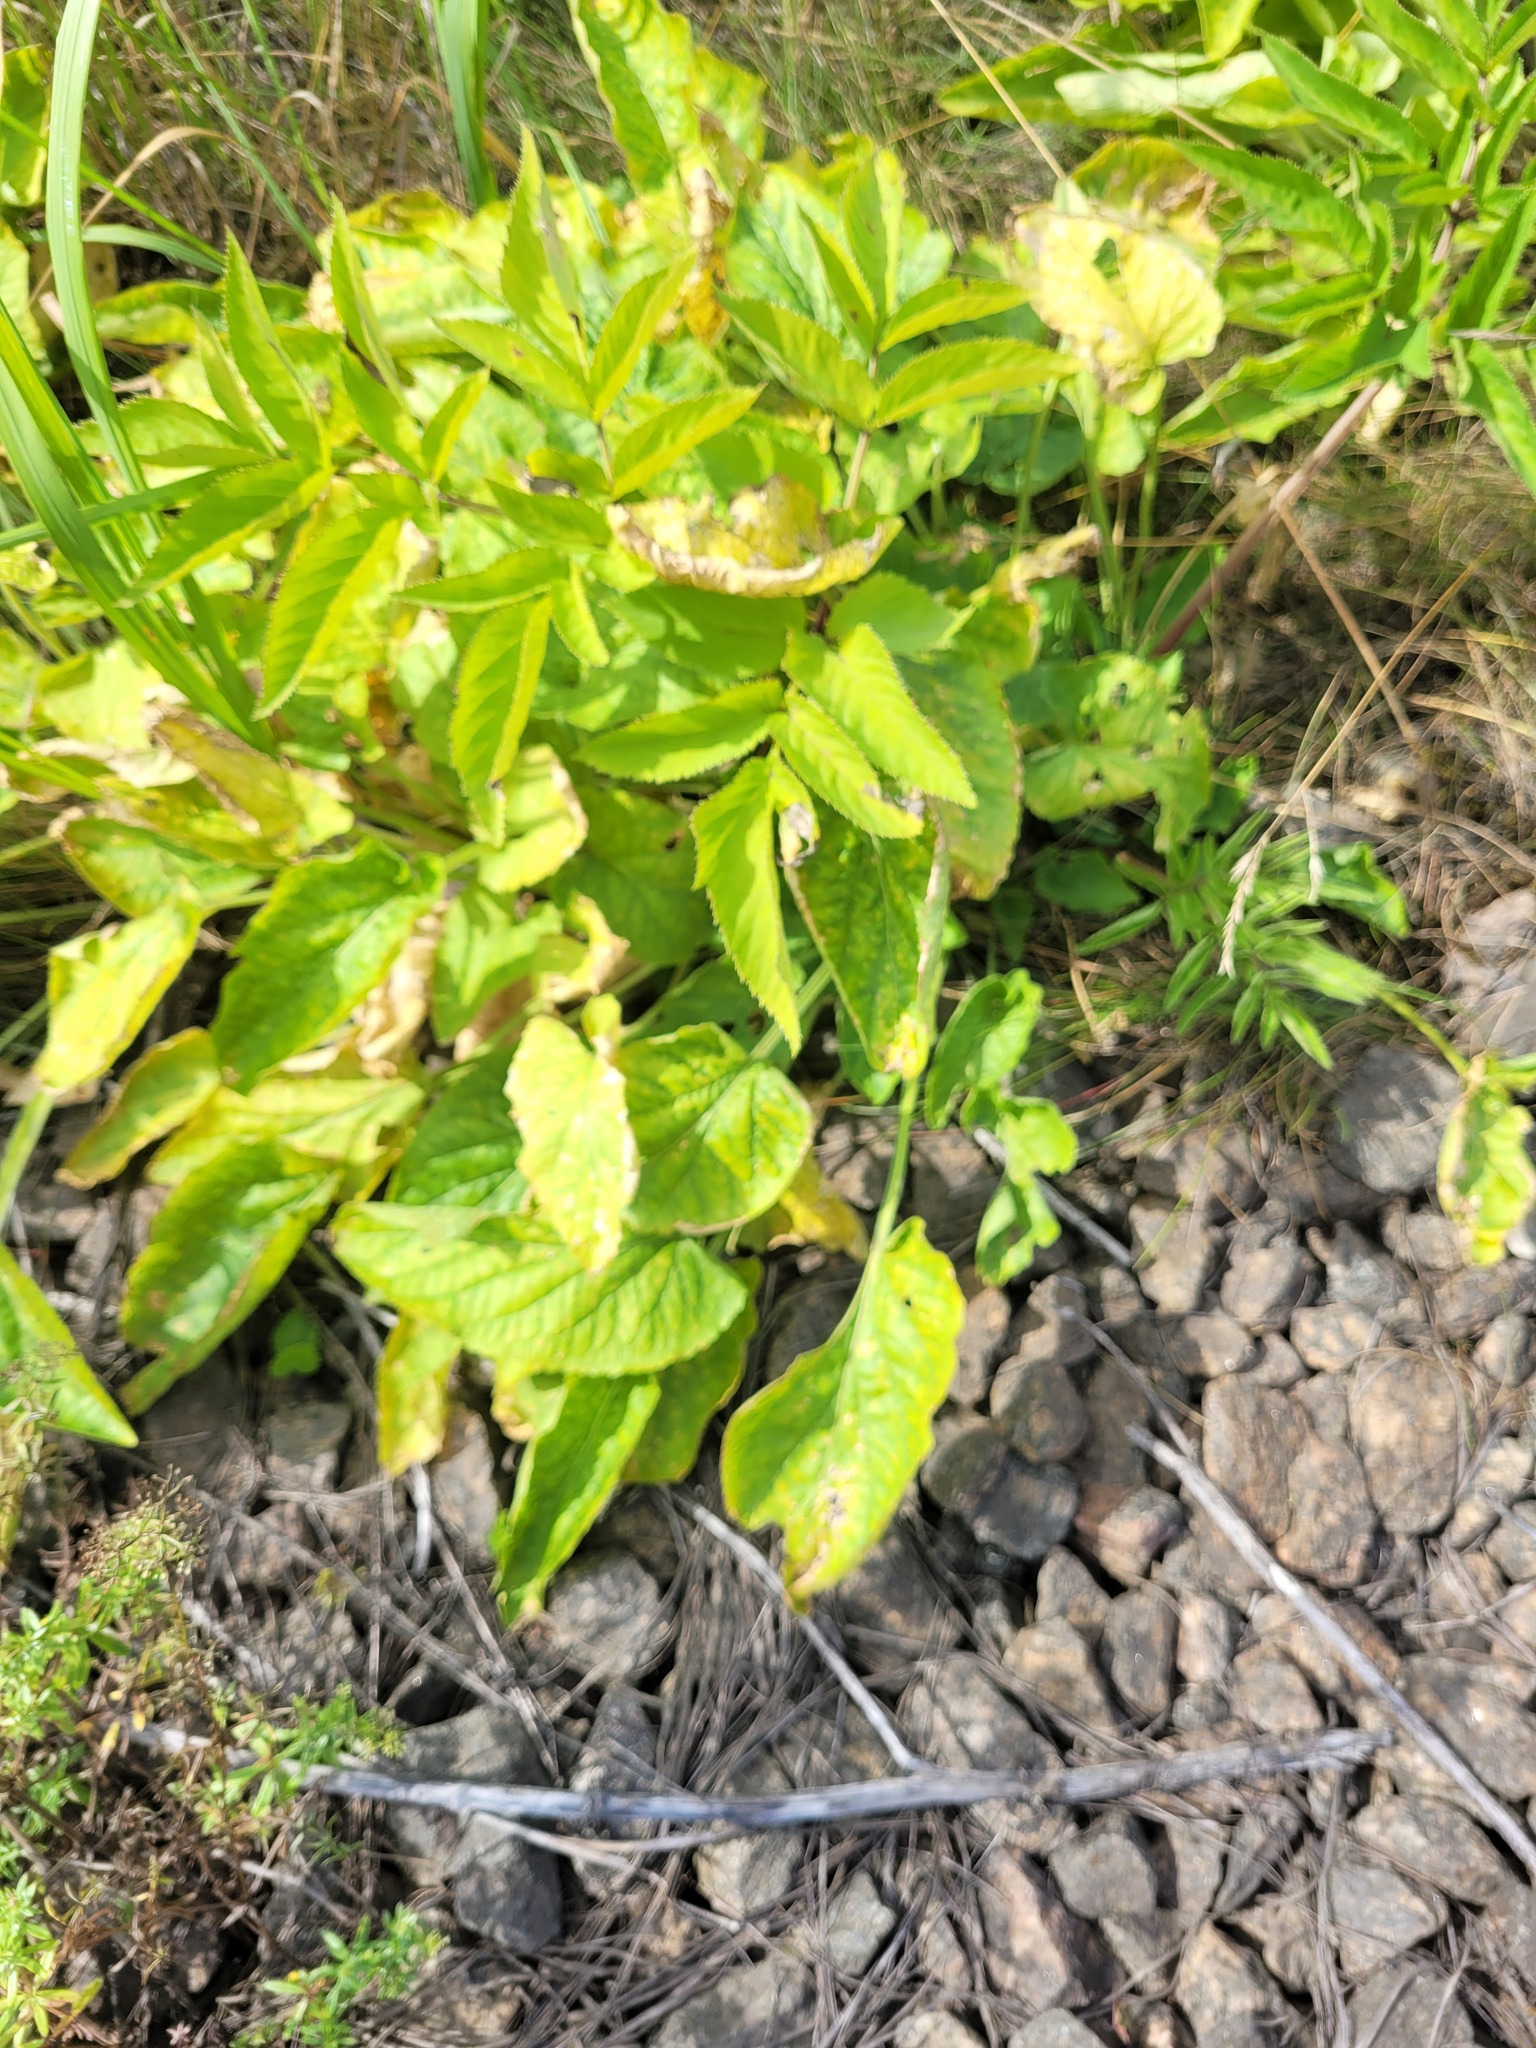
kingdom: Plantae
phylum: Tracheophyta
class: Magnoliopsida
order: Malpighiales
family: Violaceae
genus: Viola
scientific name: Viola hirta
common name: Hairy violet
